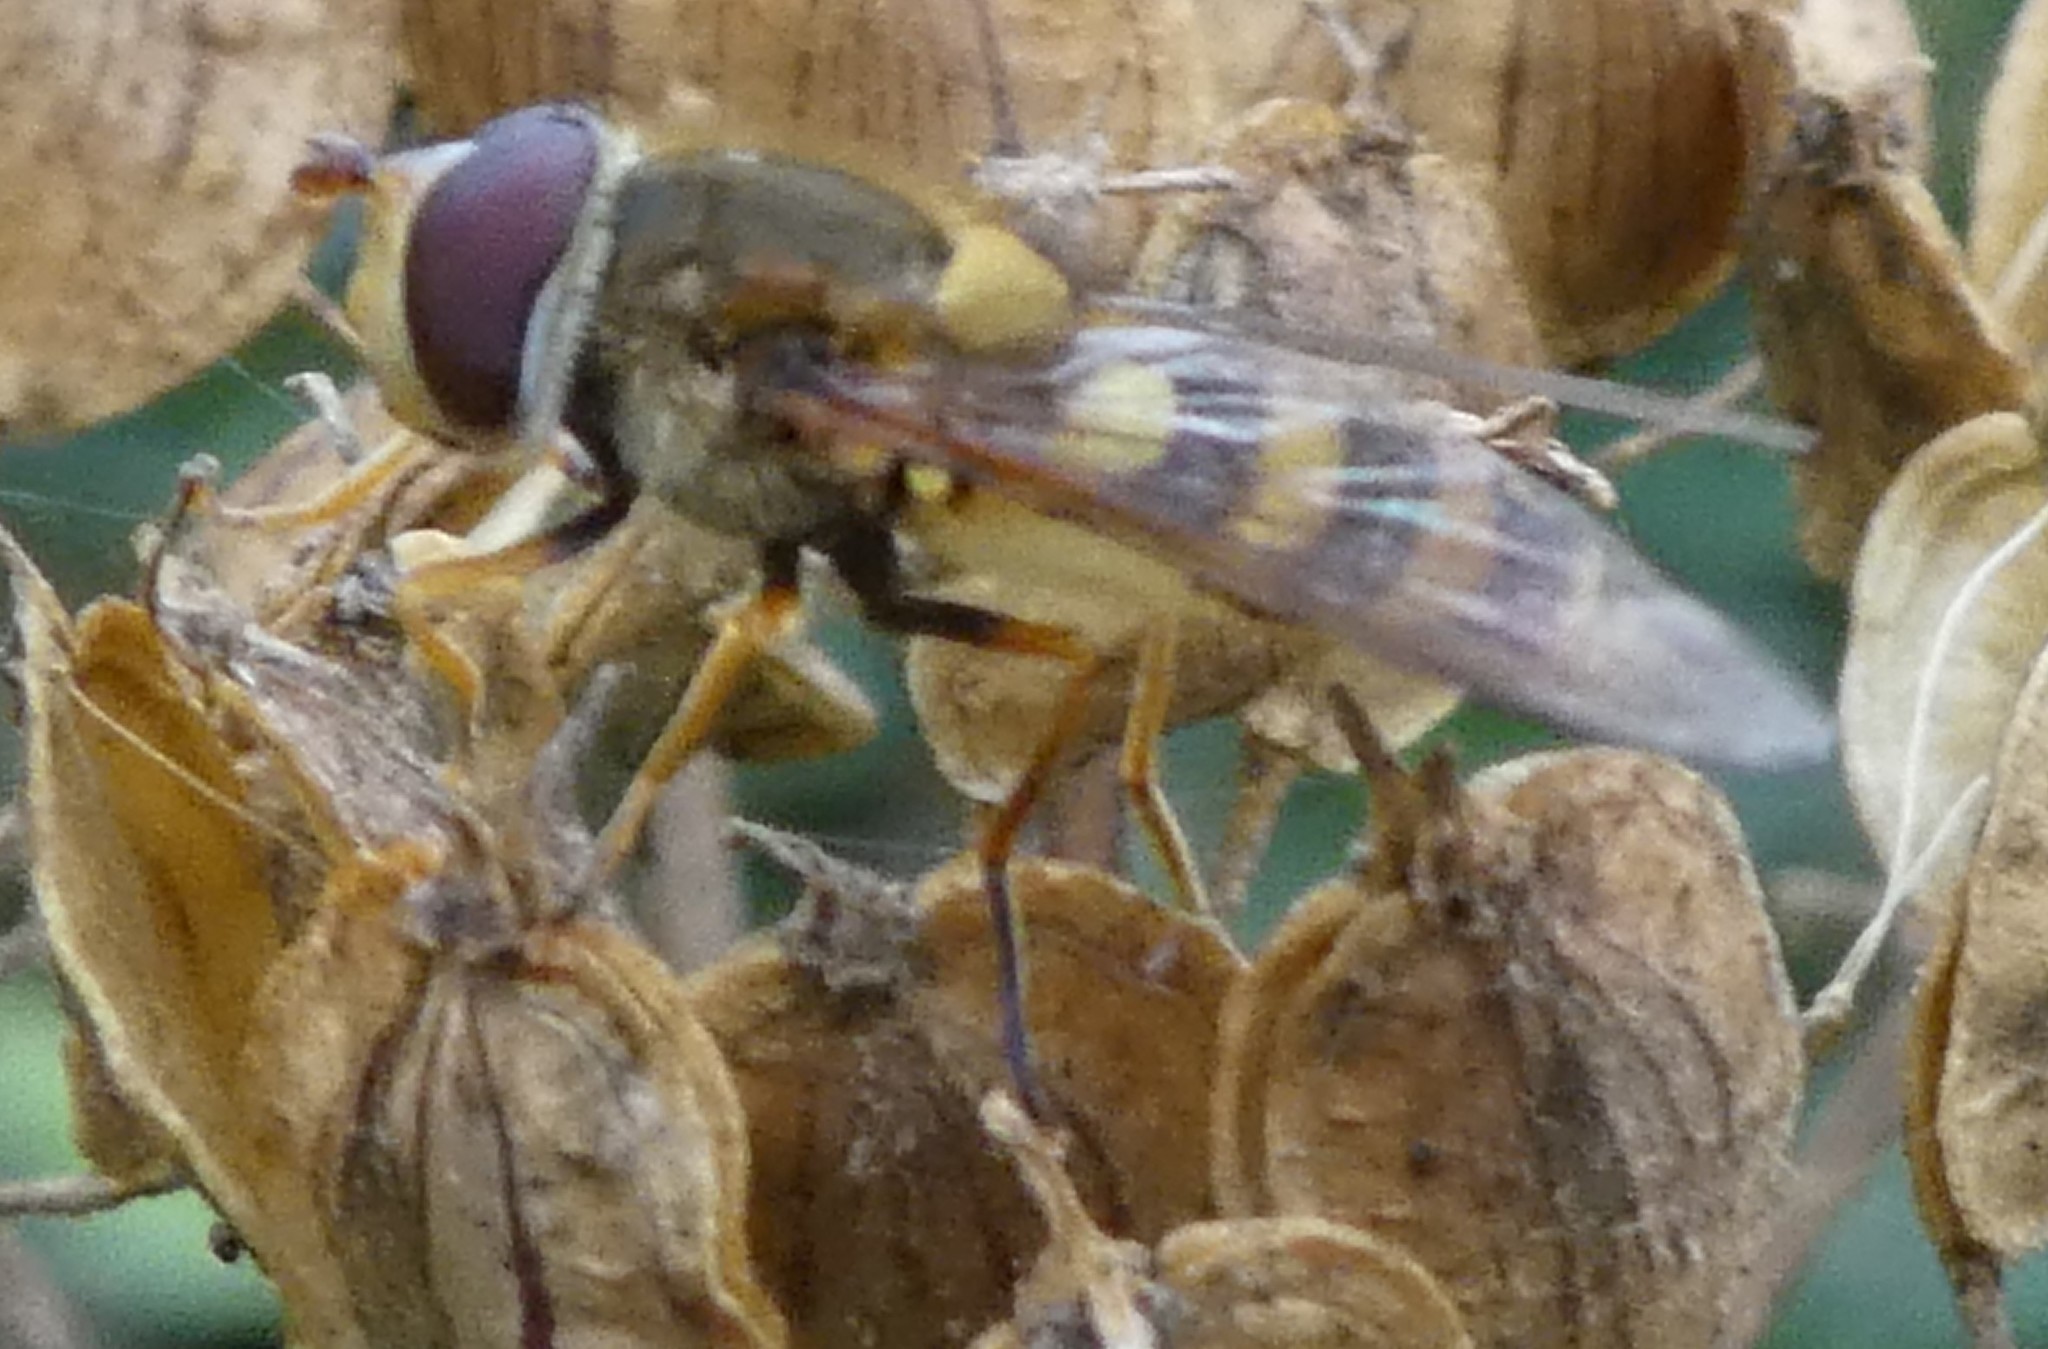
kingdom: Animalia
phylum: Arthropoda
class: Insecta
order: Diptera
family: Syrphidae
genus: Syrphus
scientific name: Syrphus
